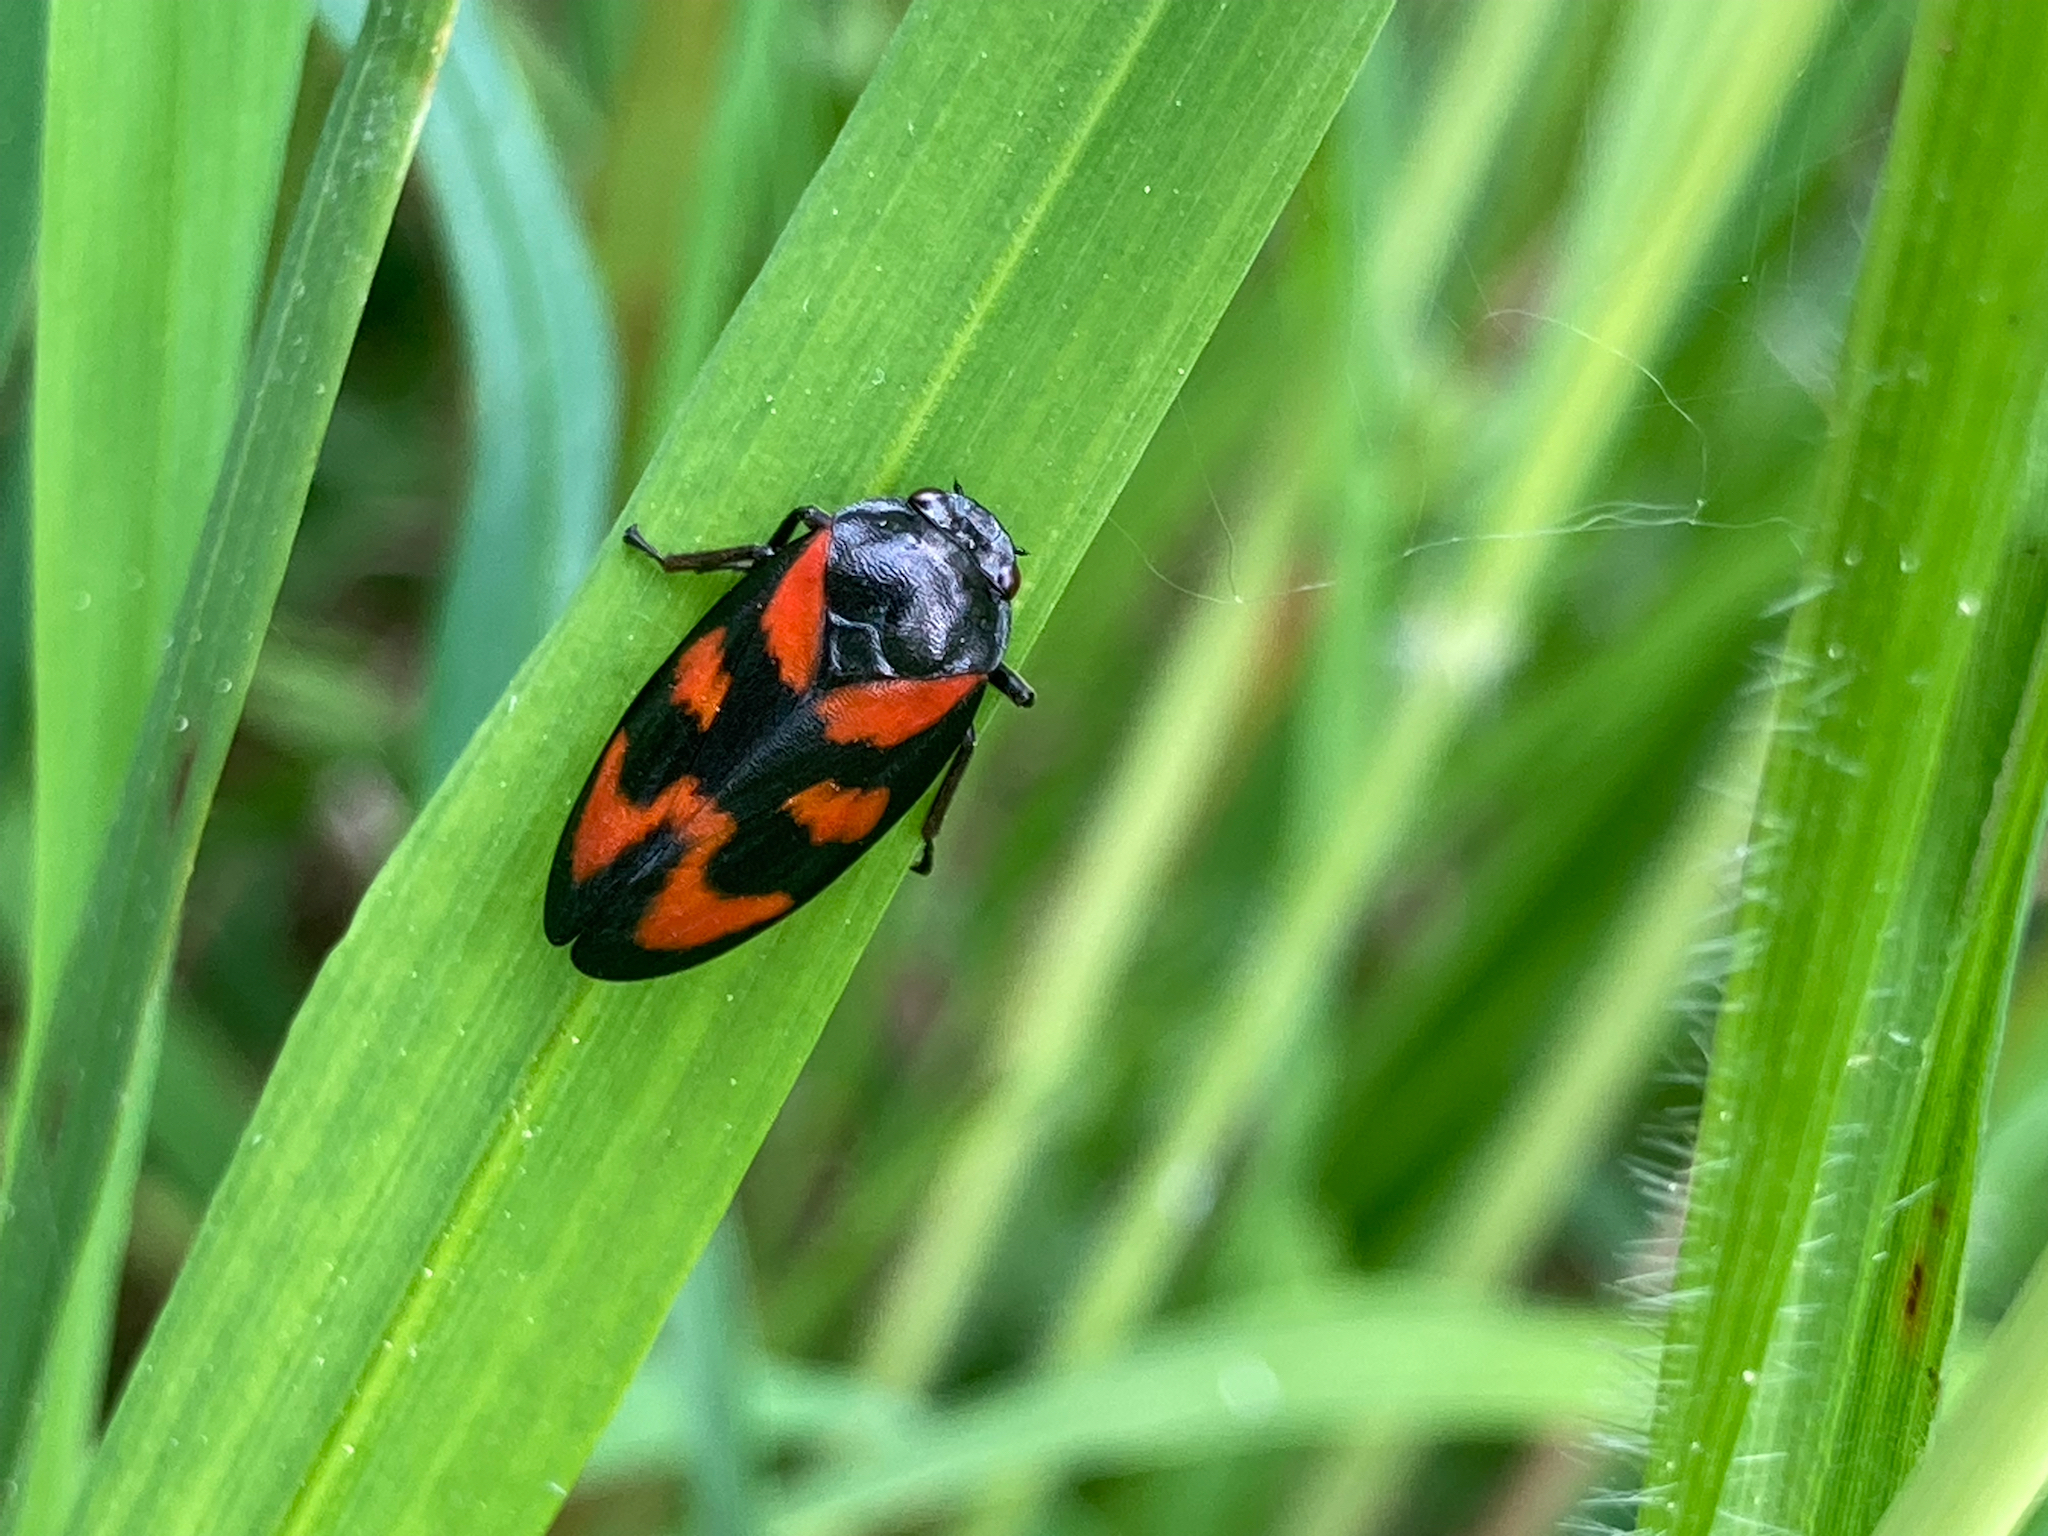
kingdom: Animalia
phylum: Arthropoda
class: Insecta
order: Hemiptera
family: Cercopidae
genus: Cercopis
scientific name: Cercopis vulnerata
